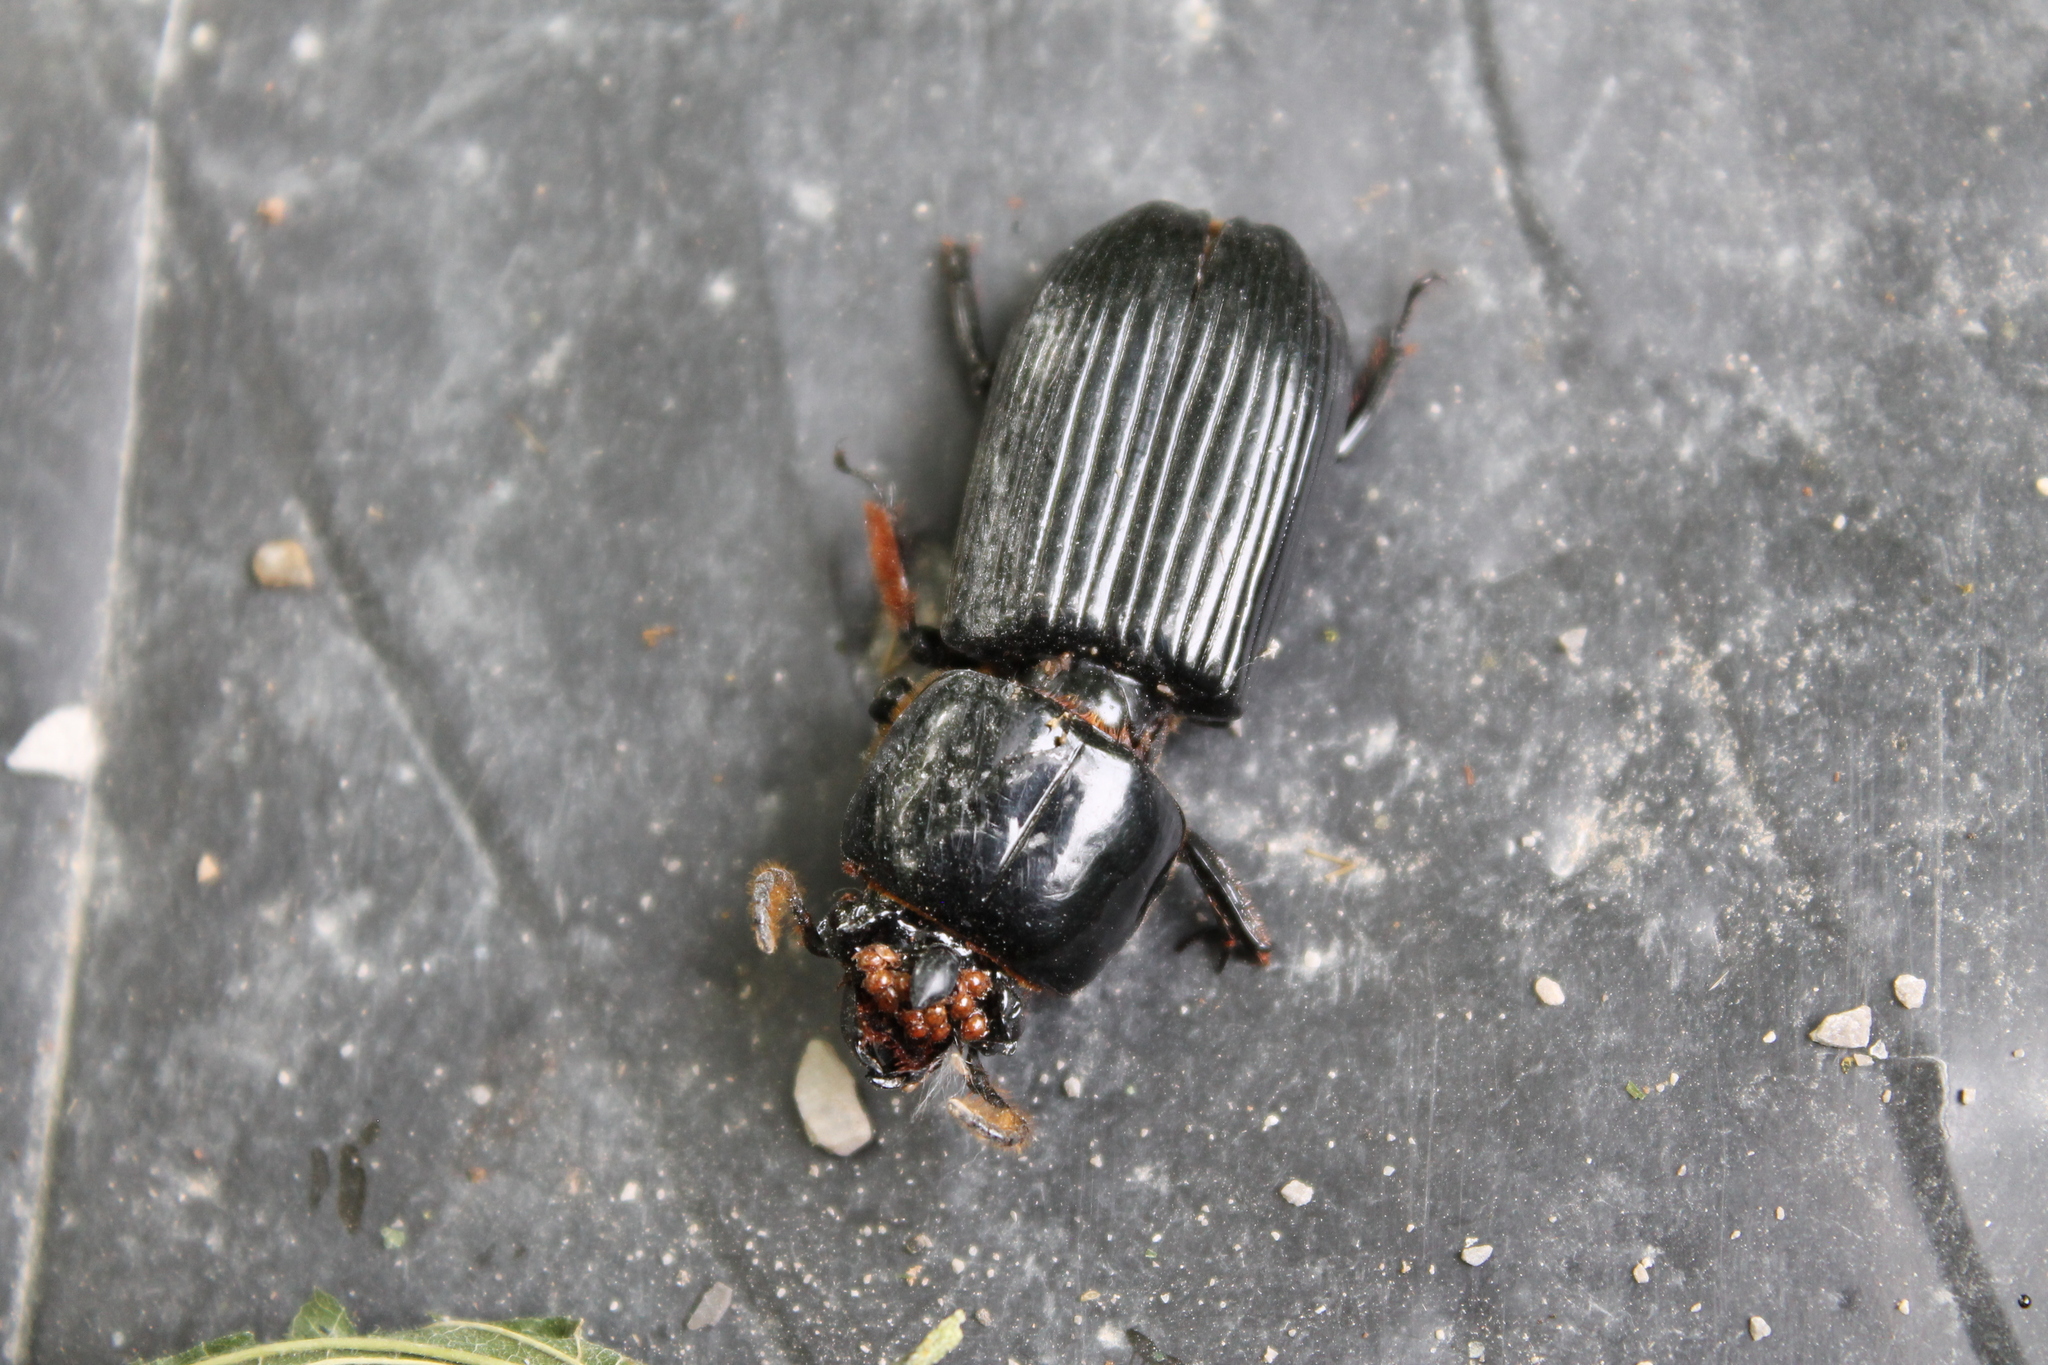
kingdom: Animalia
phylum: Arthropoda
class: Insecta
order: Coleoptera
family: Passalidae
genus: Odontotaenius
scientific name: Odontotaenius disjunctus
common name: Patent leather beetle
